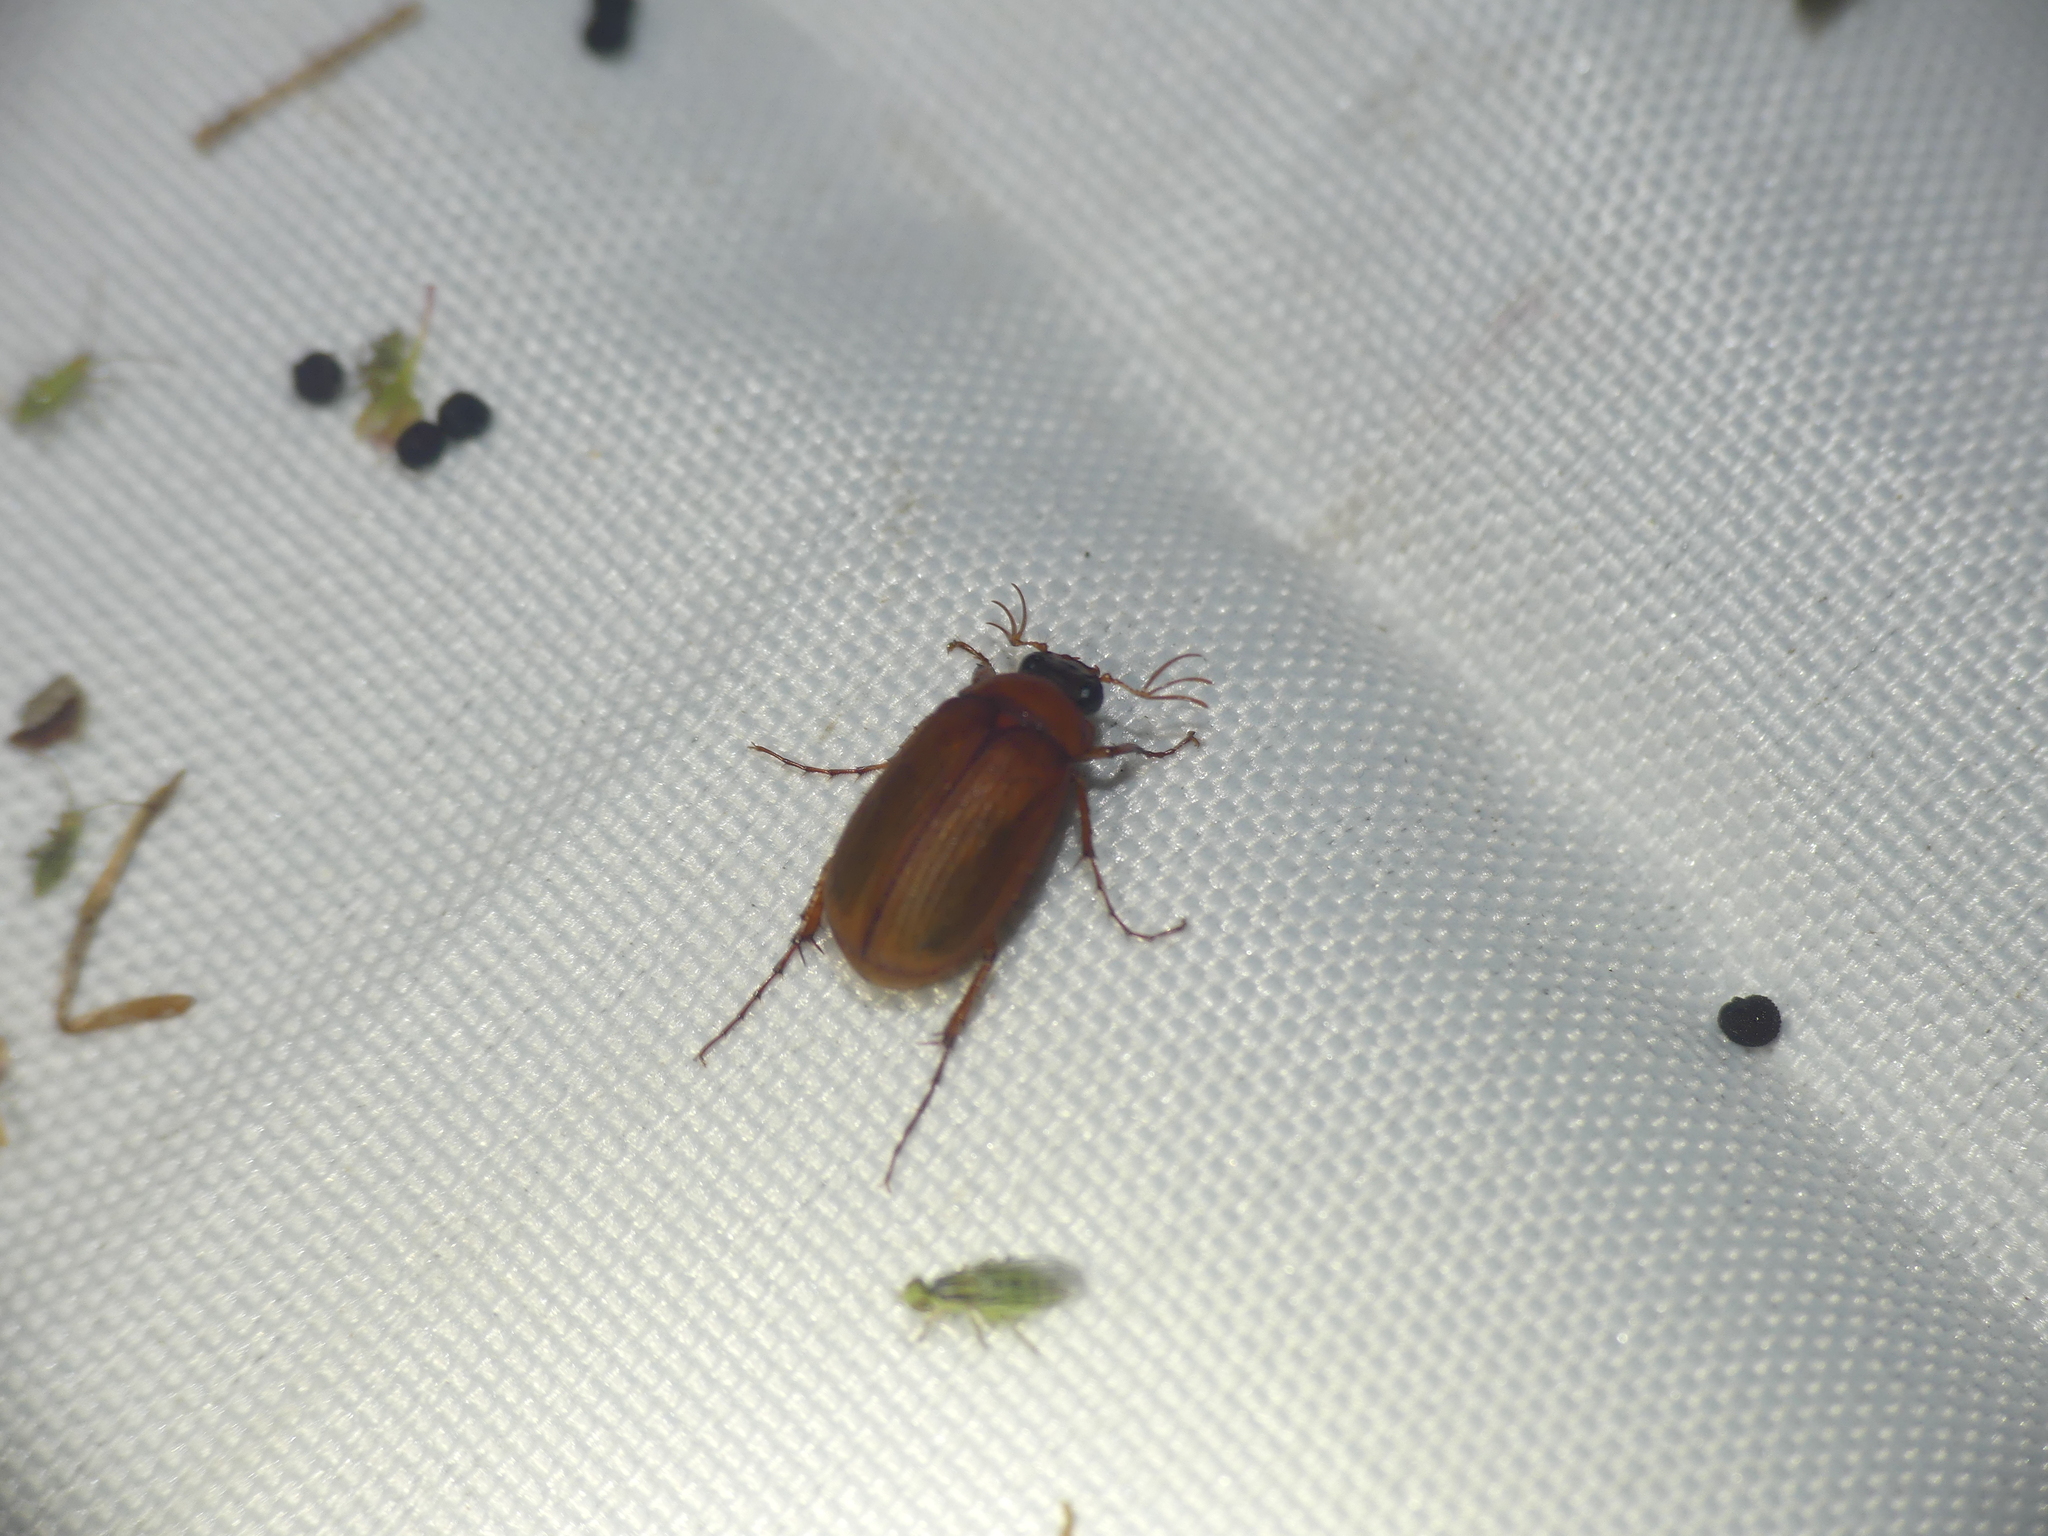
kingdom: Animalia
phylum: Arthropoda
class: Insecta
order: Coleoptera
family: Scarabaeidae
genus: Serica
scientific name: Serica brunnea
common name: Brown chafer
